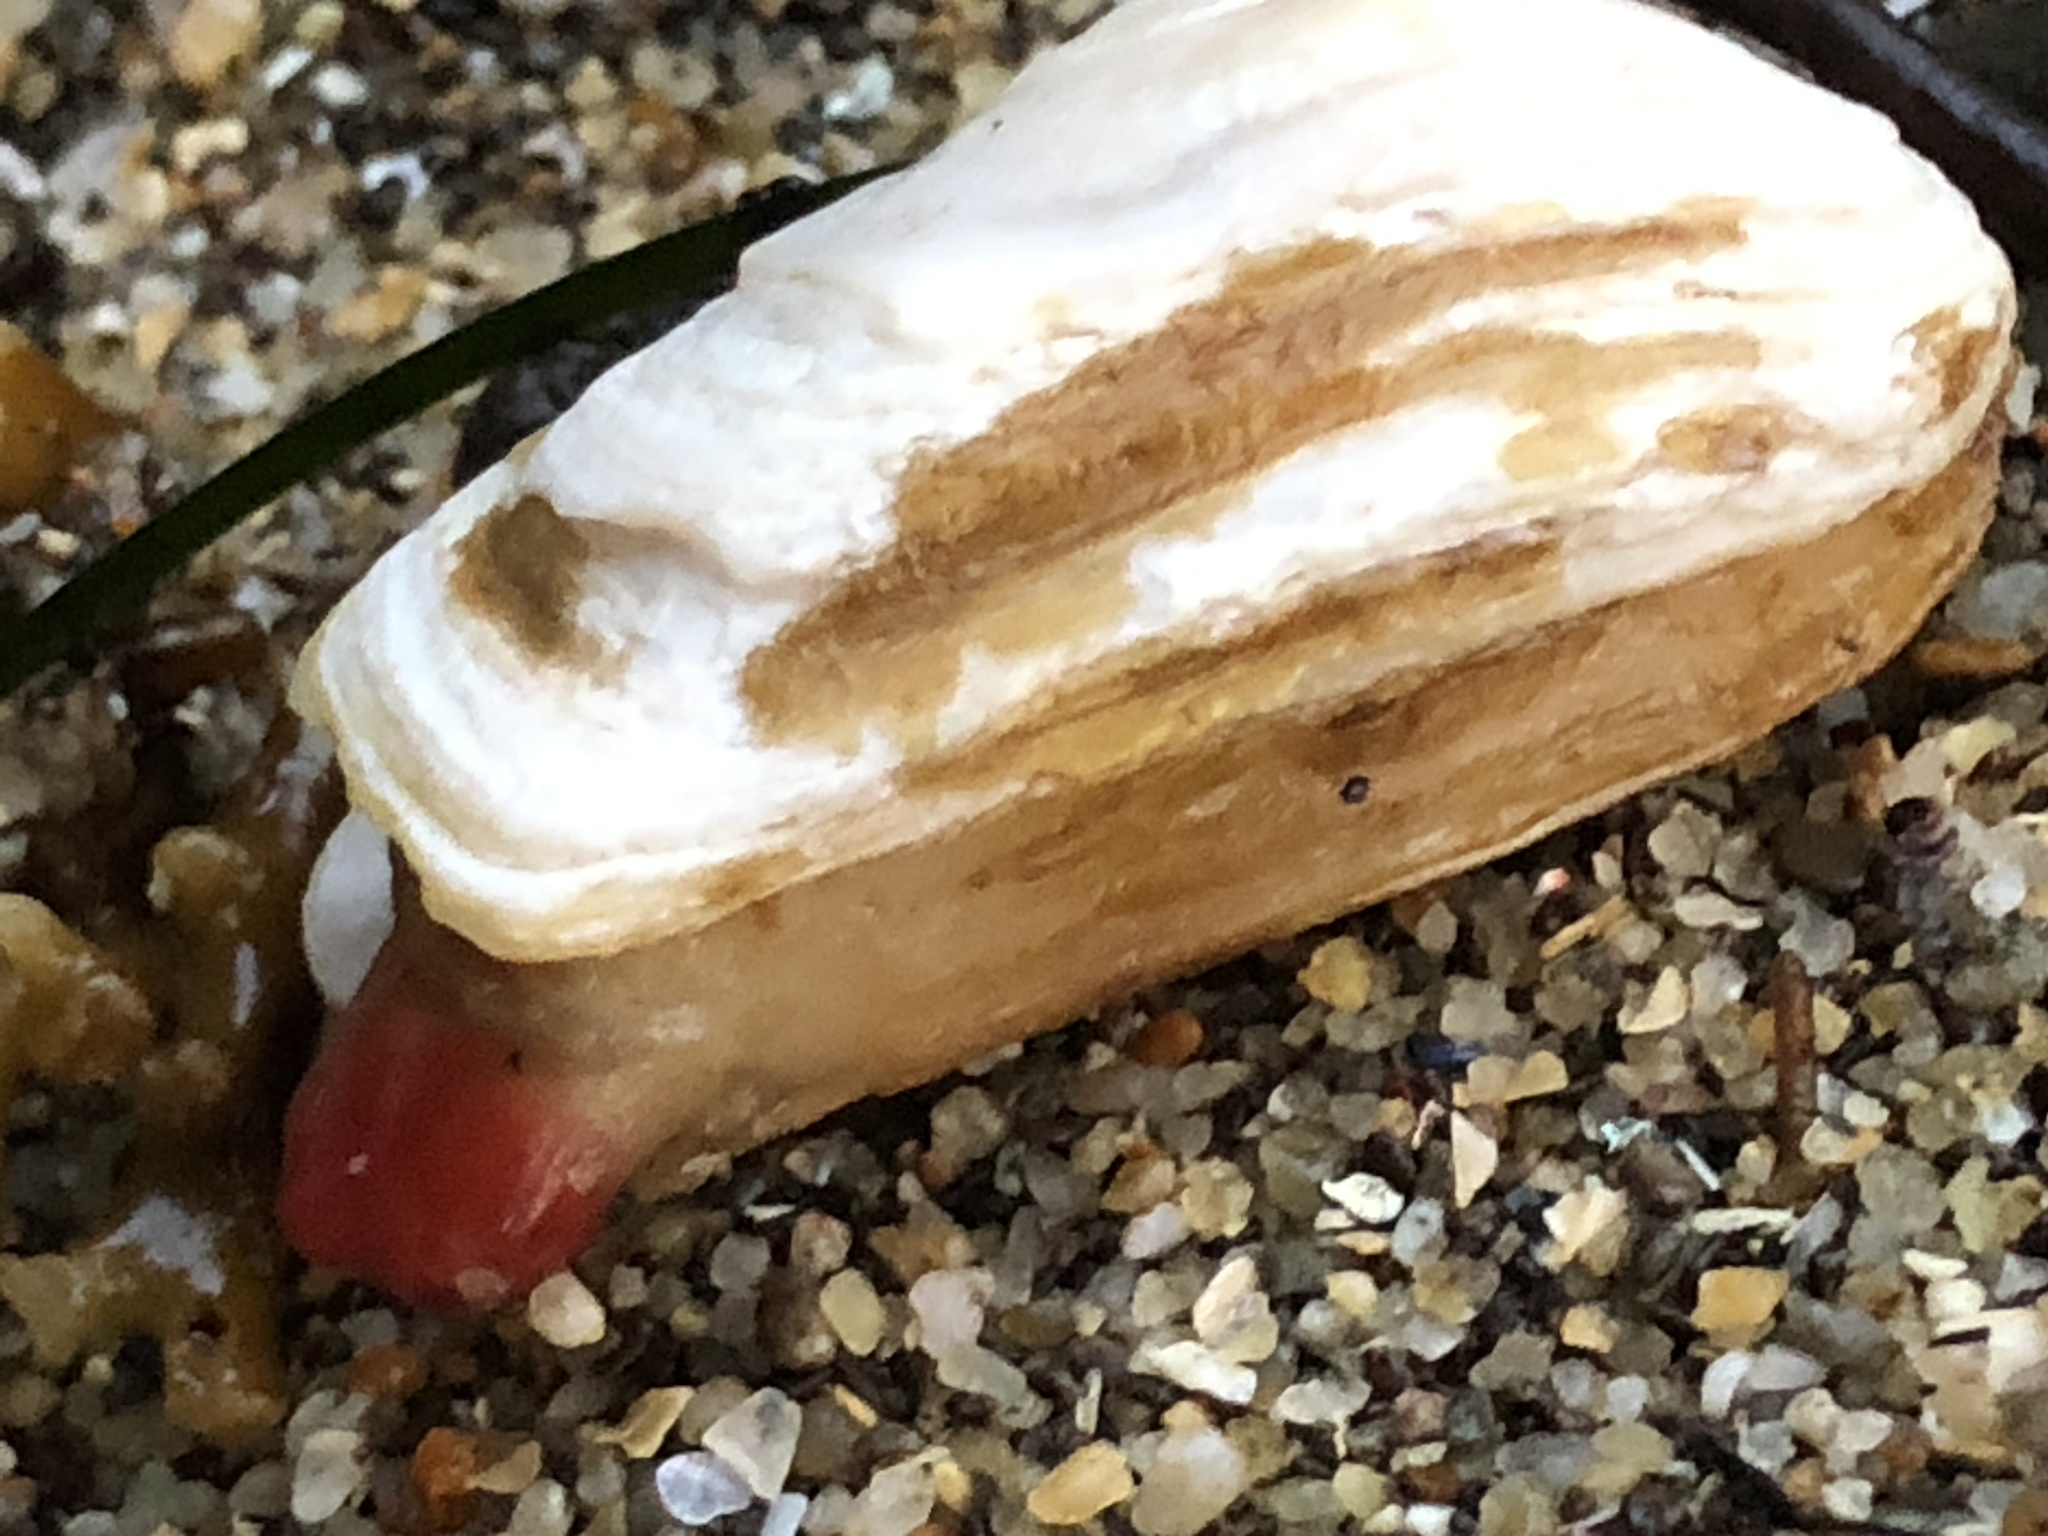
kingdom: Animalia
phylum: Mollusca
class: Bivalvia
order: Adapedonta
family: Hiatellidae
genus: Hiatella
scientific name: Hiatella arctica
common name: Arctic hiatella
